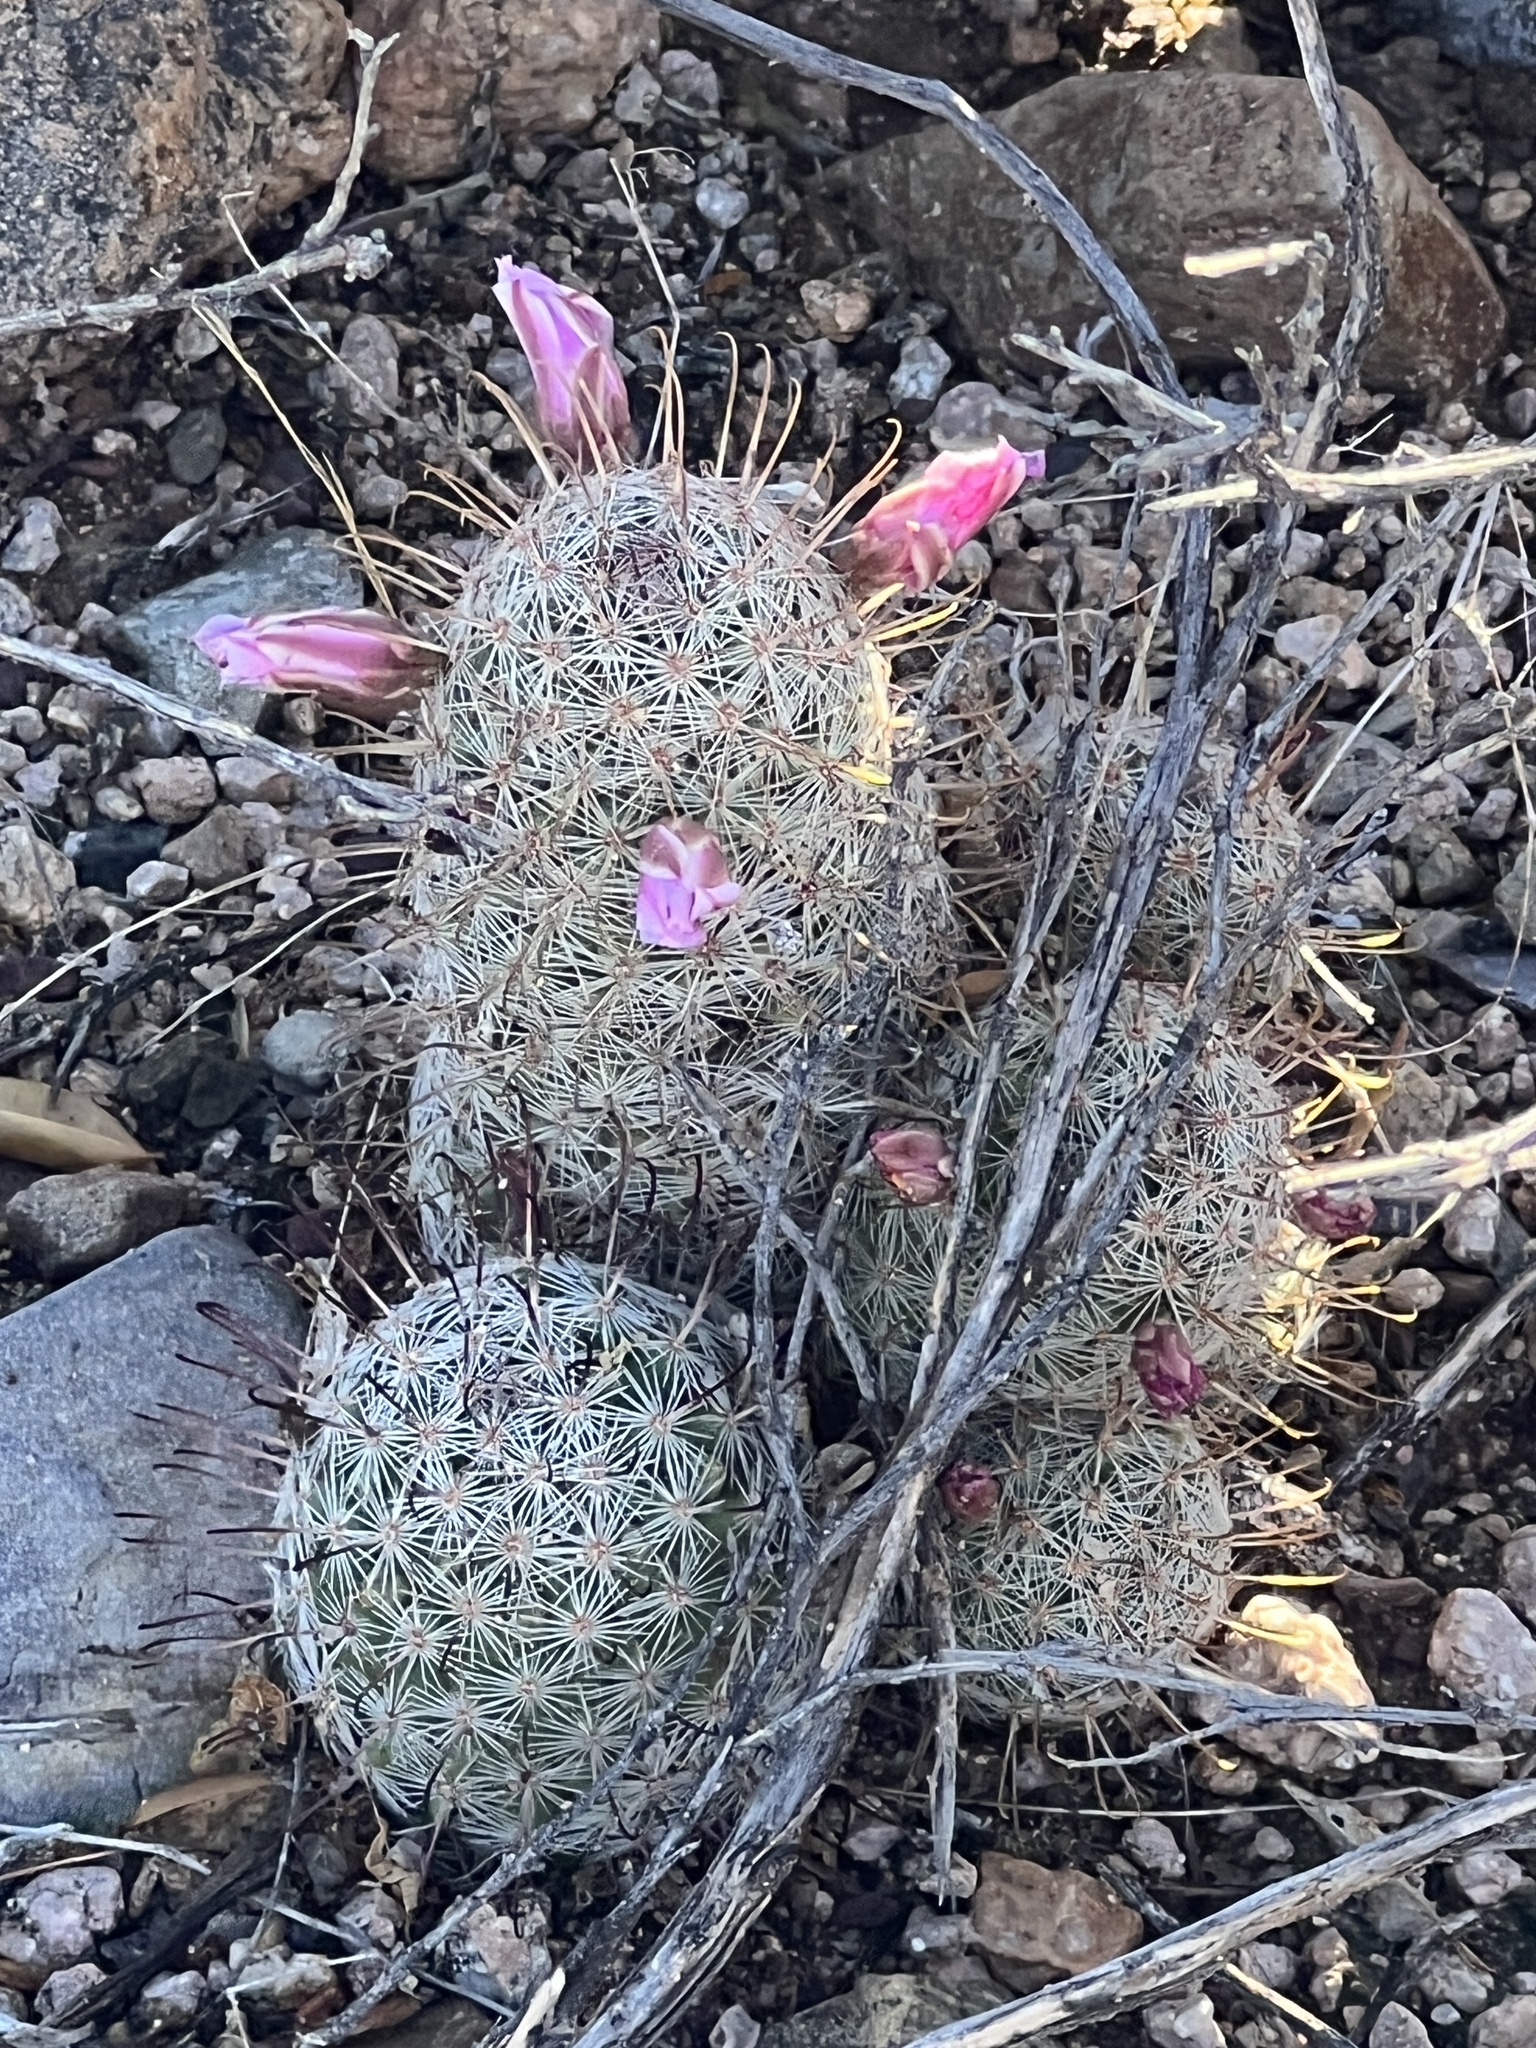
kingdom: Plantae
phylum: Tracheophyta
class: Magnoliopsida
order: Caryophyllales
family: Cactaceae
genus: Cochemiea
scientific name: Cochemiea grahamii
